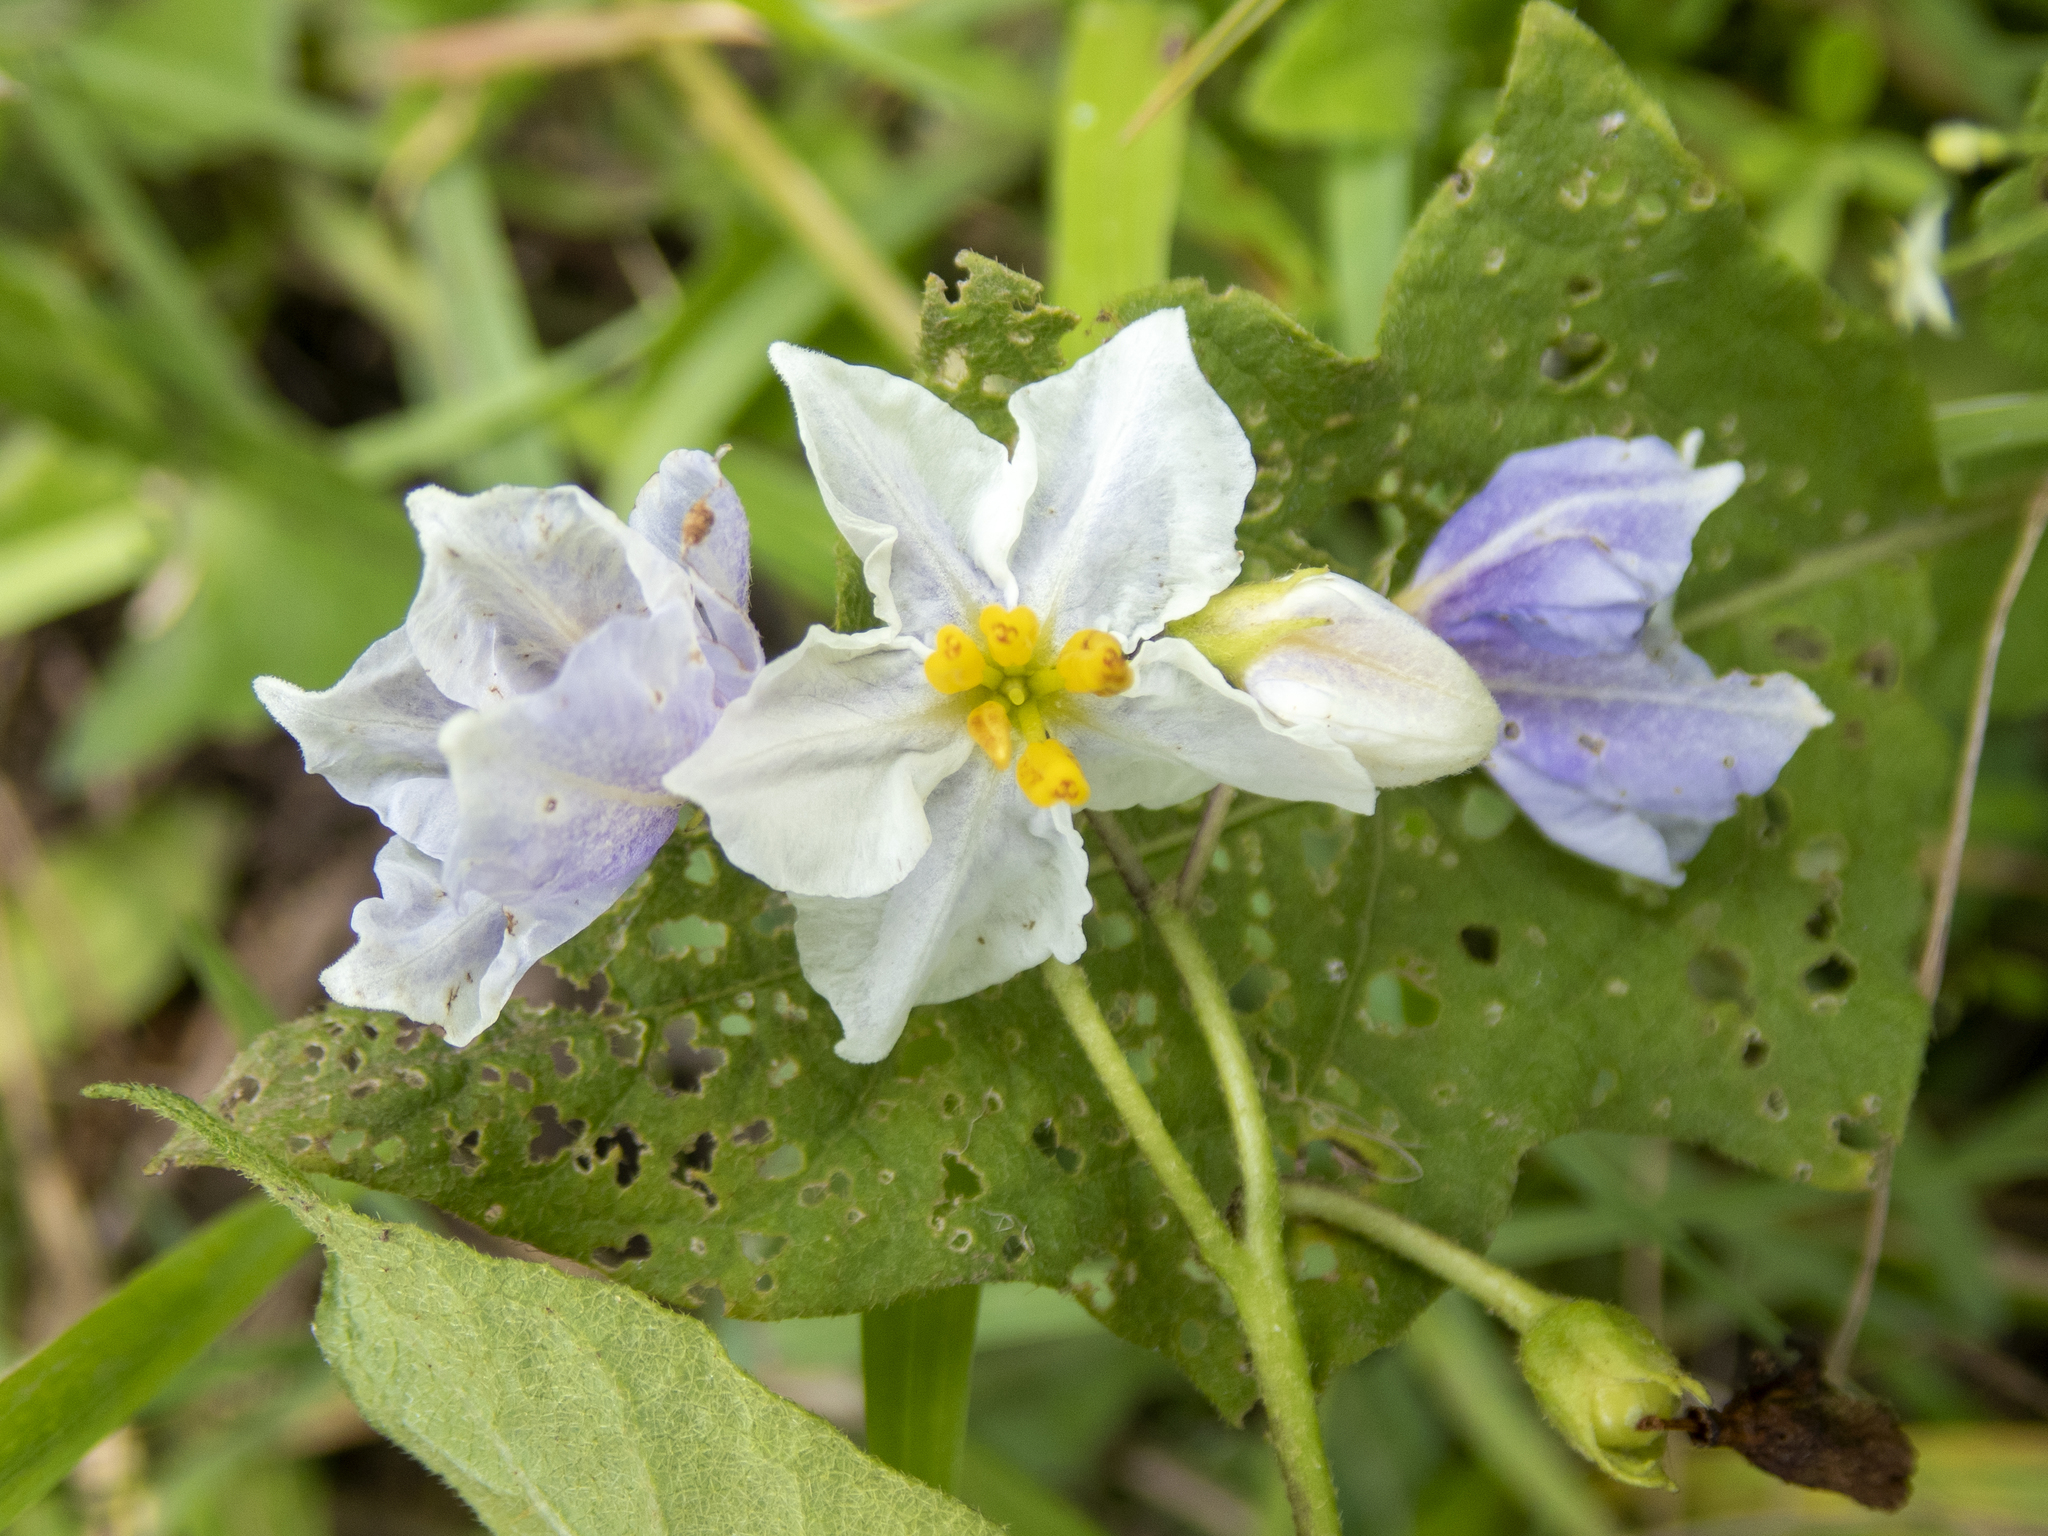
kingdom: Plantae
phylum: Tracheophyta
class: Magnoliopsida
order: Solanales
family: Solanaceae
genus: Solanum
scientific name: Solanum carolinense
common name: Horse-nettle
